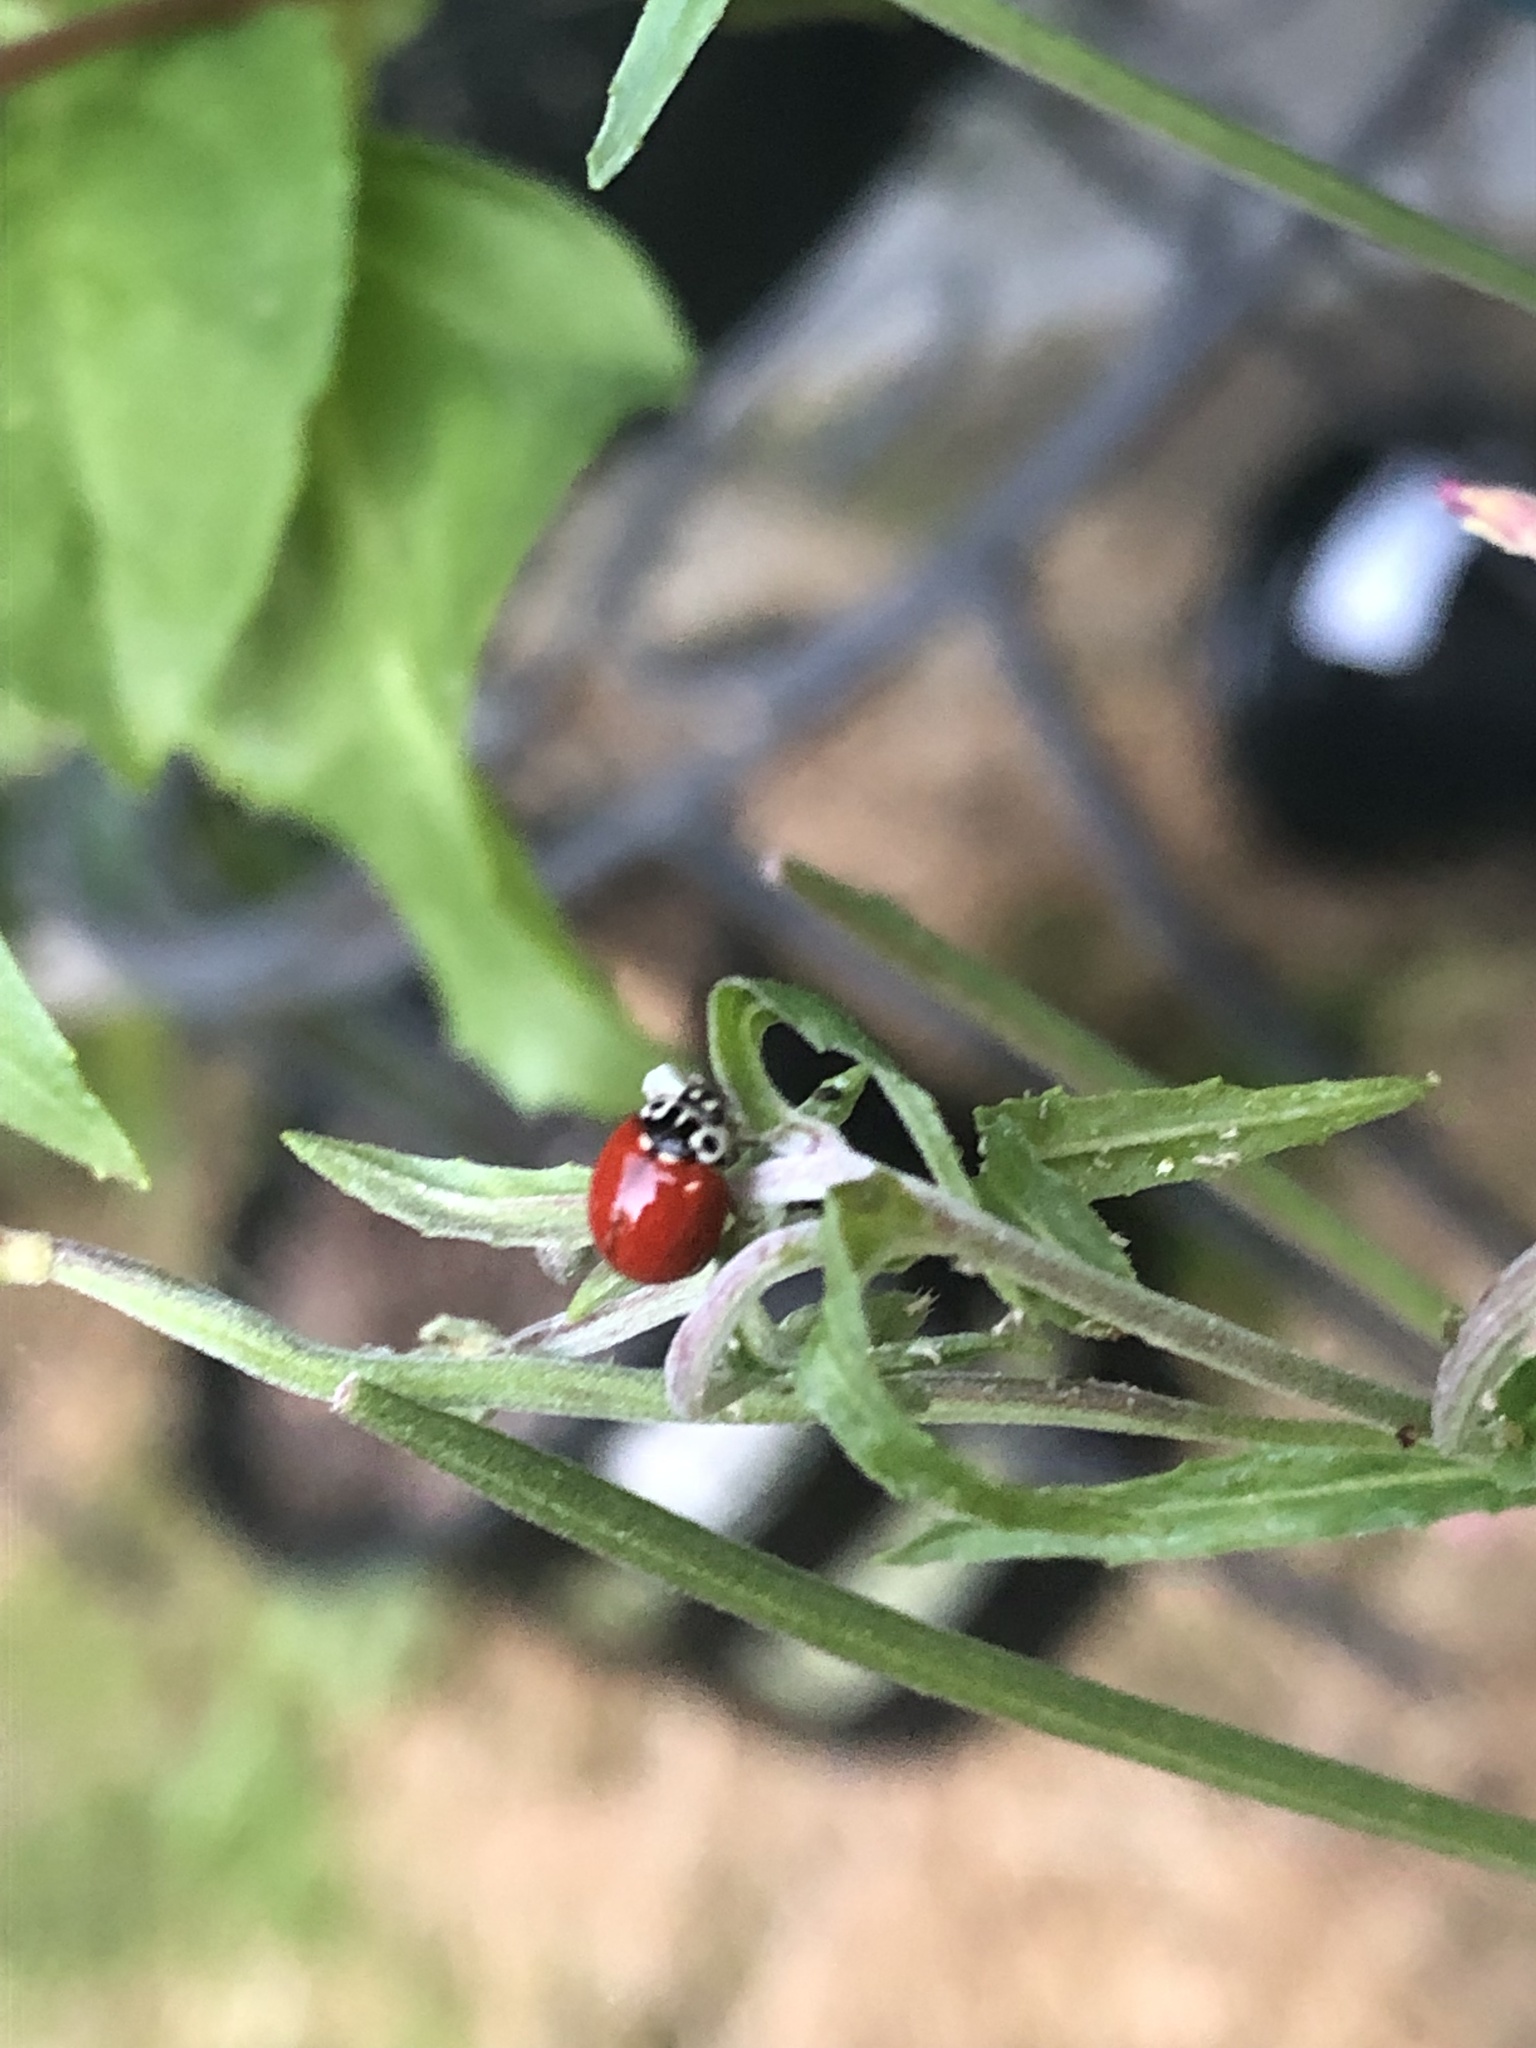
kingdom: Animalia
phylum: Arthropoda
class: Insecta
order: Coleoptera
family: Coccinellidae
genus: Cycloneda
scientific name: Cycloneda polita
